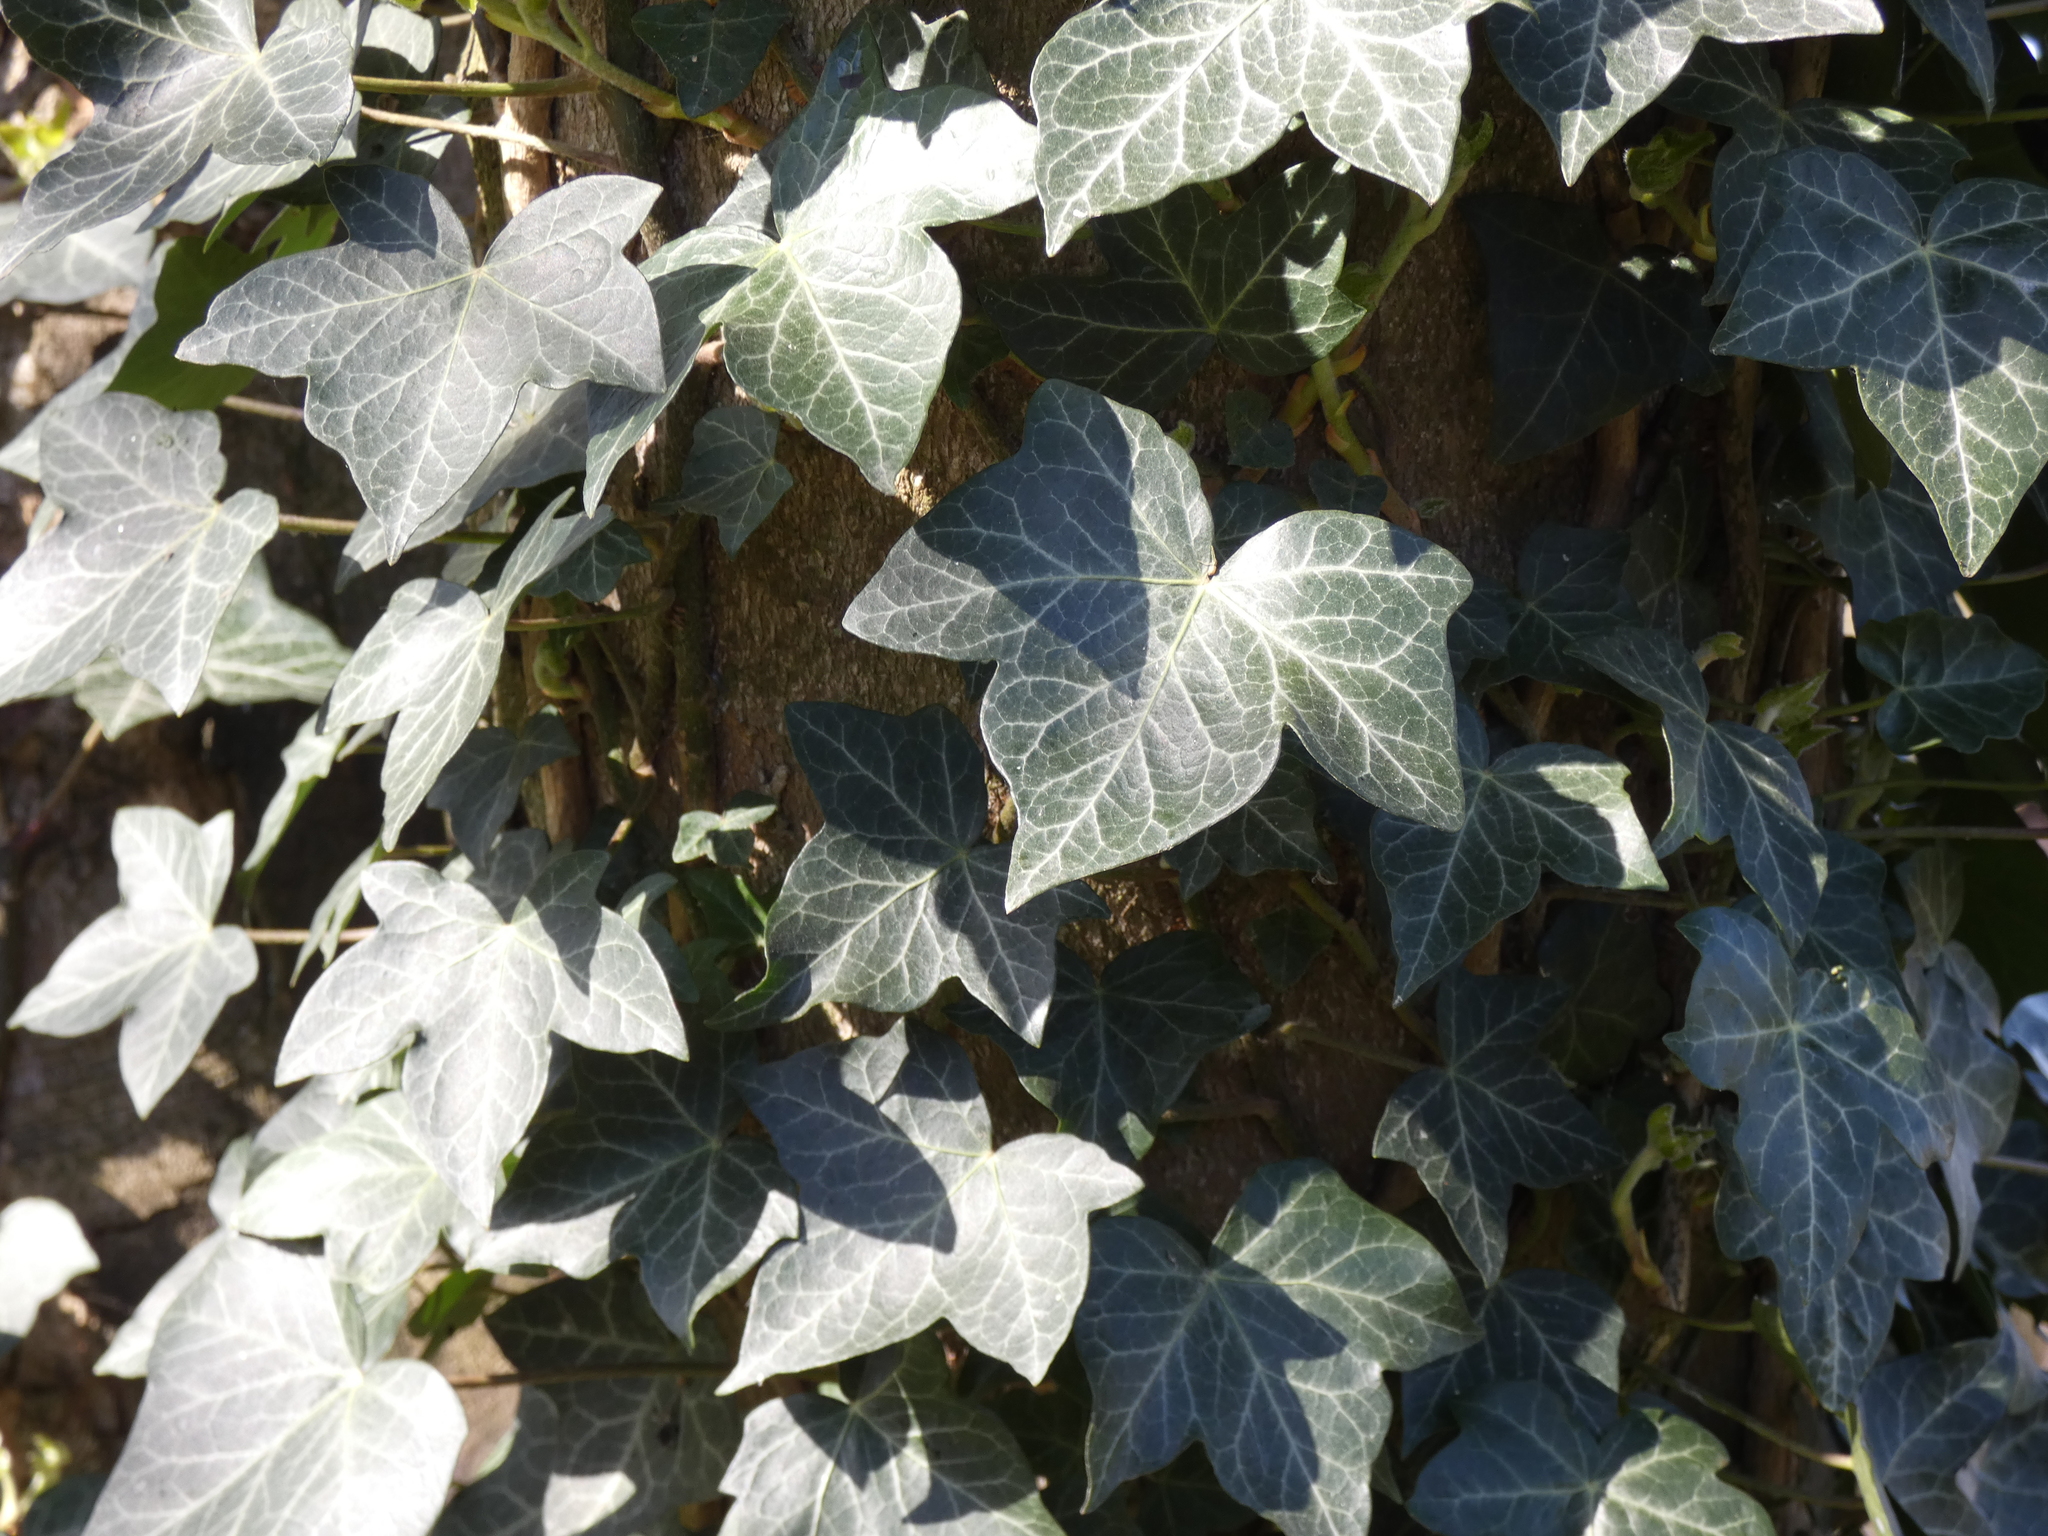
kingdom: Plantae
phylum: Tracheophyta
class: Magnoliopsida
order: Apiales
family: Araliaceae
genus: Hedera
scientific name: Hedera helix
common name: Ivy
